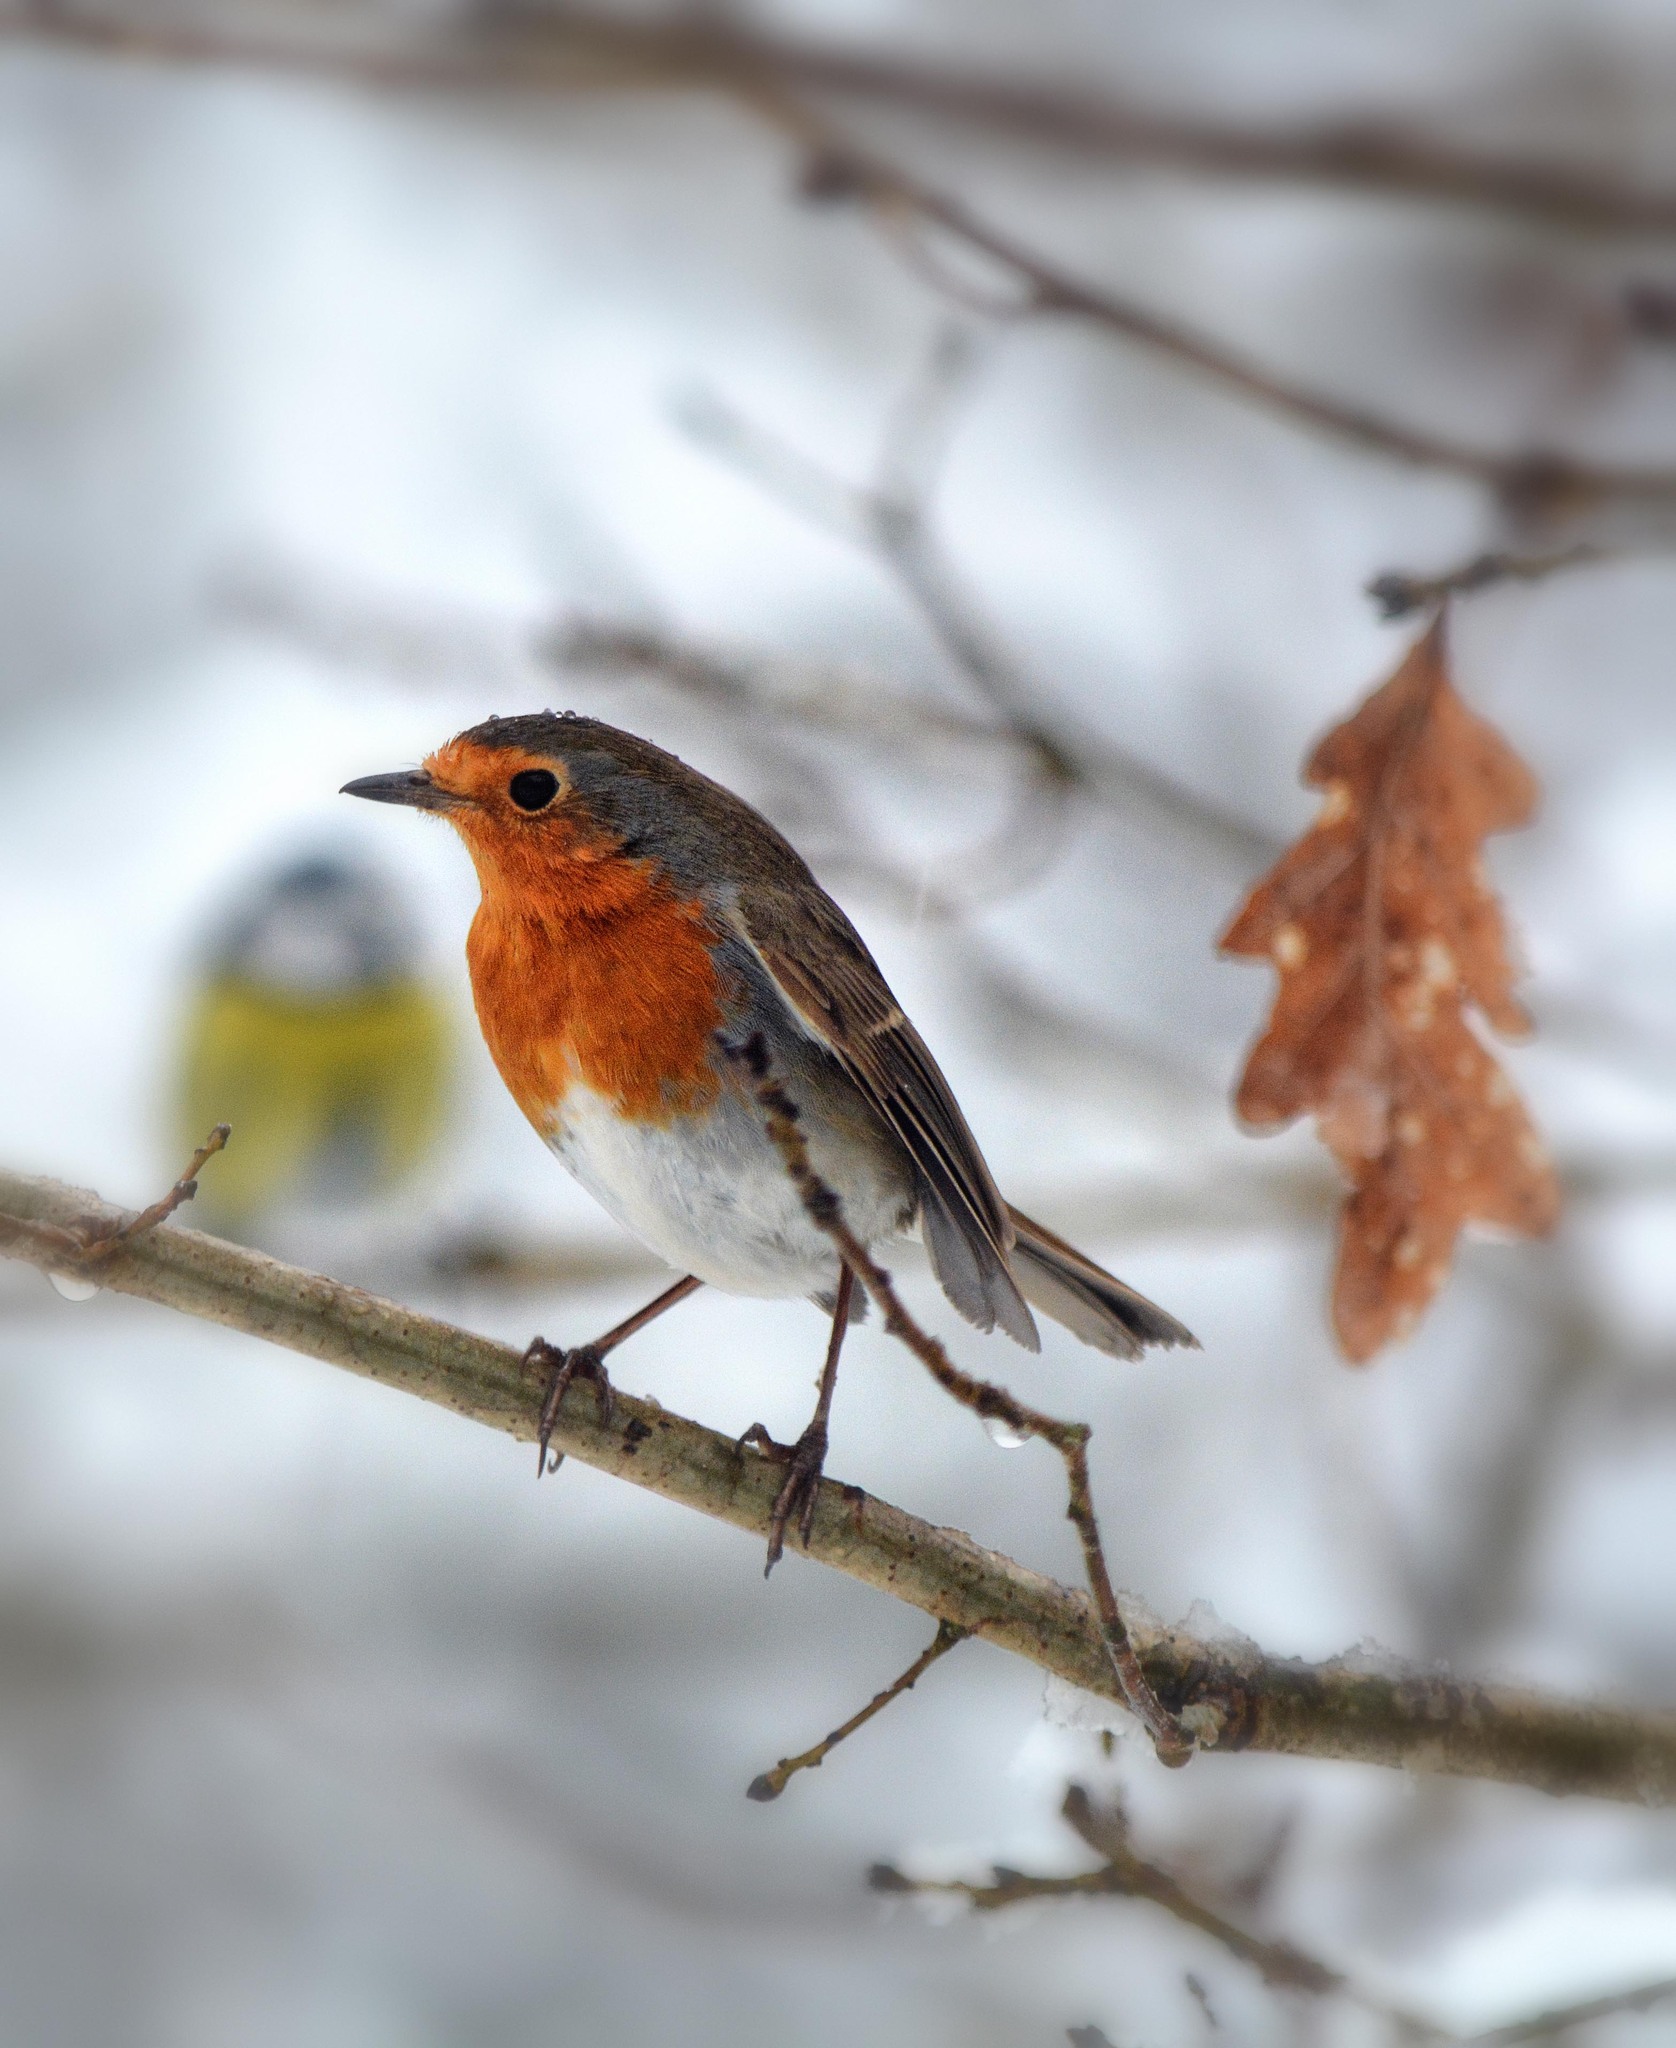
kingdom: Animalia
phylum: Chordata
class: Aves
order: Passeriformes
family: Muscicapidae
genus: Erithacus
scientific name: Erithacus rubecula
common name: European robin
